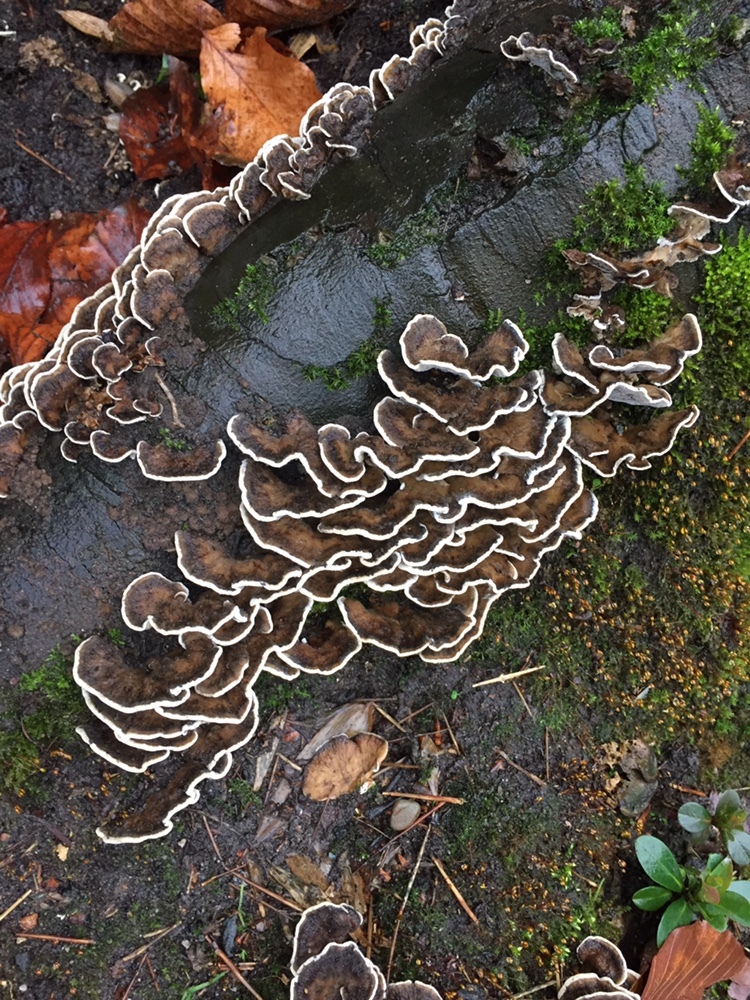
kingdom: Fungi
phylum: Basidiomycota
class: Agaricomycetes
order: Polyporales
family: Phanerochaetaceae
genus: Bjerkandera
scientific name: Bjerkandera adusta
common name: Smoky bracket
